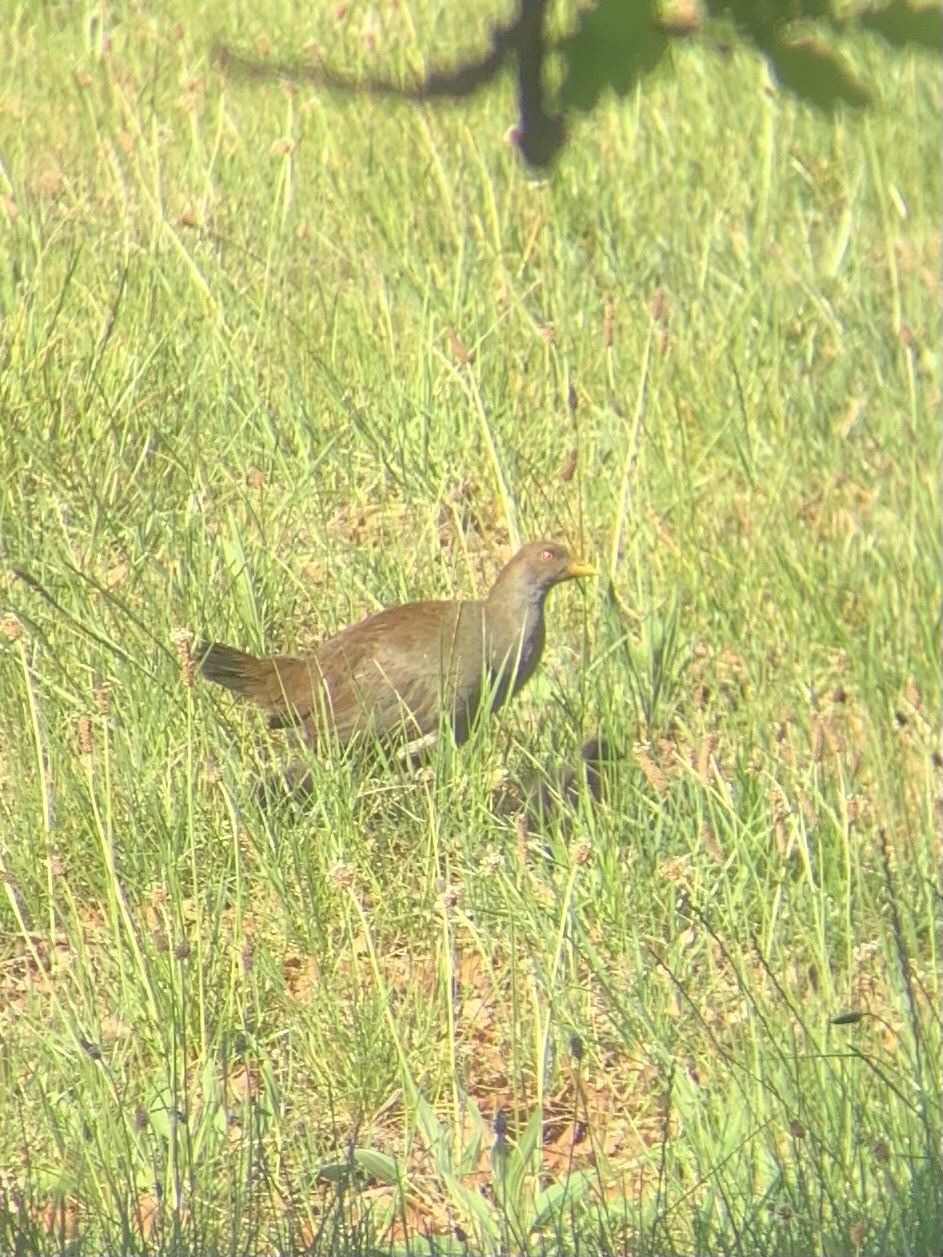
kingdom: Animalia
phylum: Chordata
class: Aves
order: Gruiformes
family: Rallidae
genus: Gallinula
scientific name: Gallinula mortierii
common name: Tasmanian nativehen
